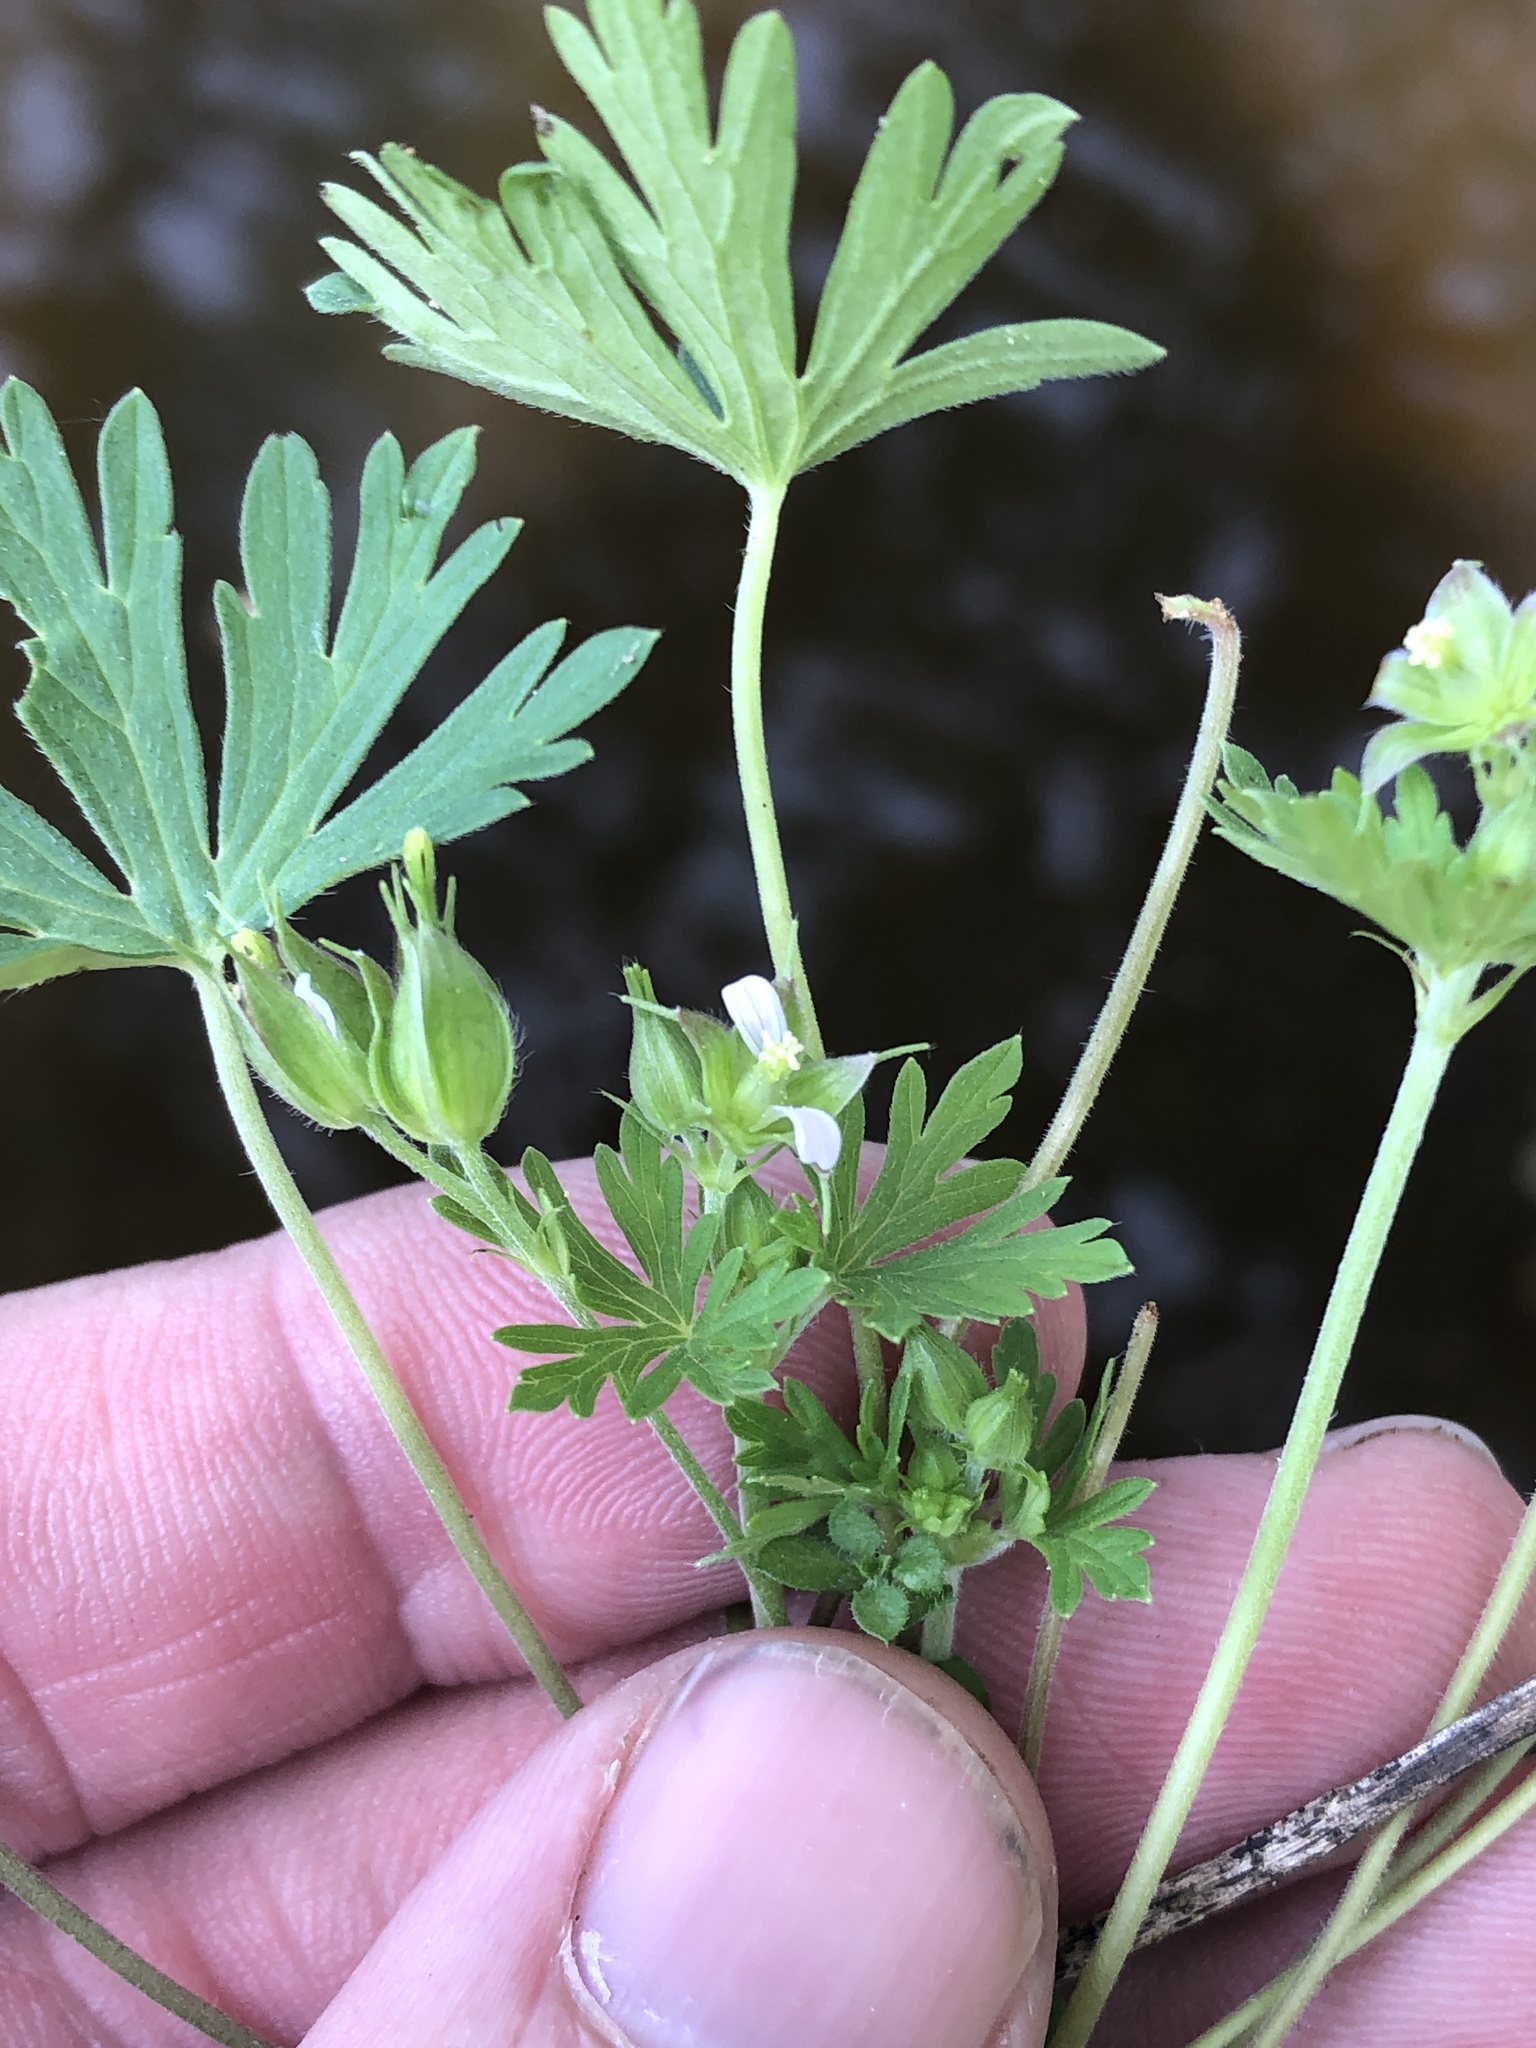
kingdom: Plantae
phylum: Tracheophyta
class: Magnoliopsida
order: Geraniales
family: Geraniaceae
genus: Geranium
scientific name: Geranium carolinianum
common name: Carolina crane's-bill
